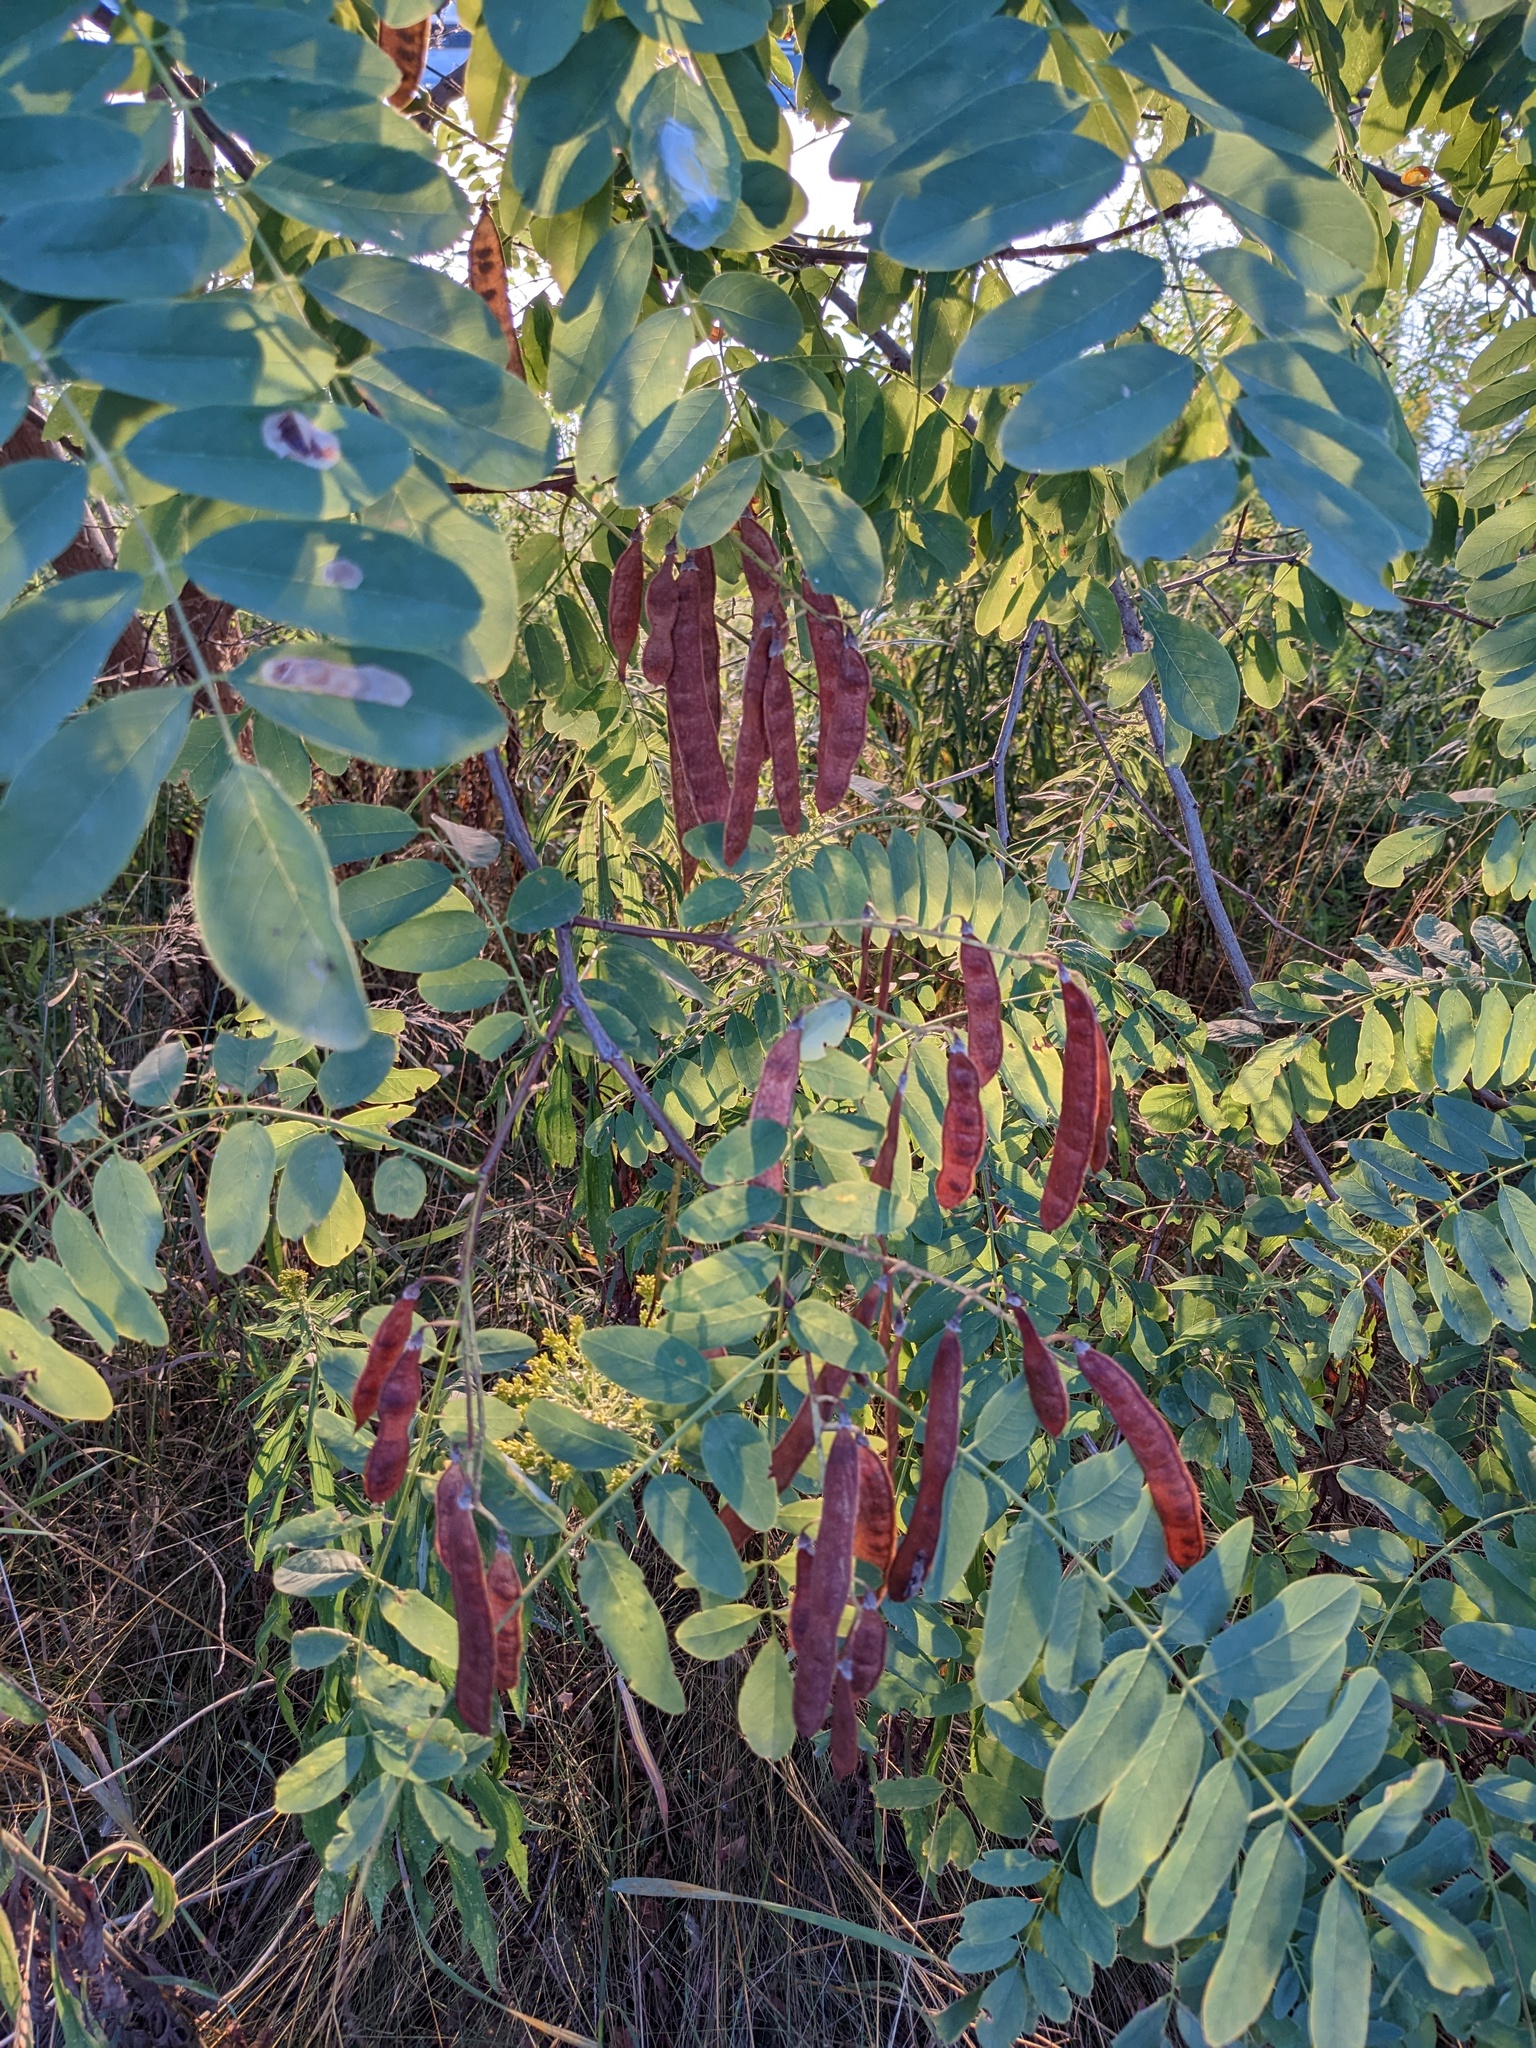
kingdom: Plantae
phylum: Tracheophyta
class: Magnoliopsida
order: Fabales
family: Fabaceae
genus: Robinia
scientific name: Robinia pseudoacacia
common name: Black locust
